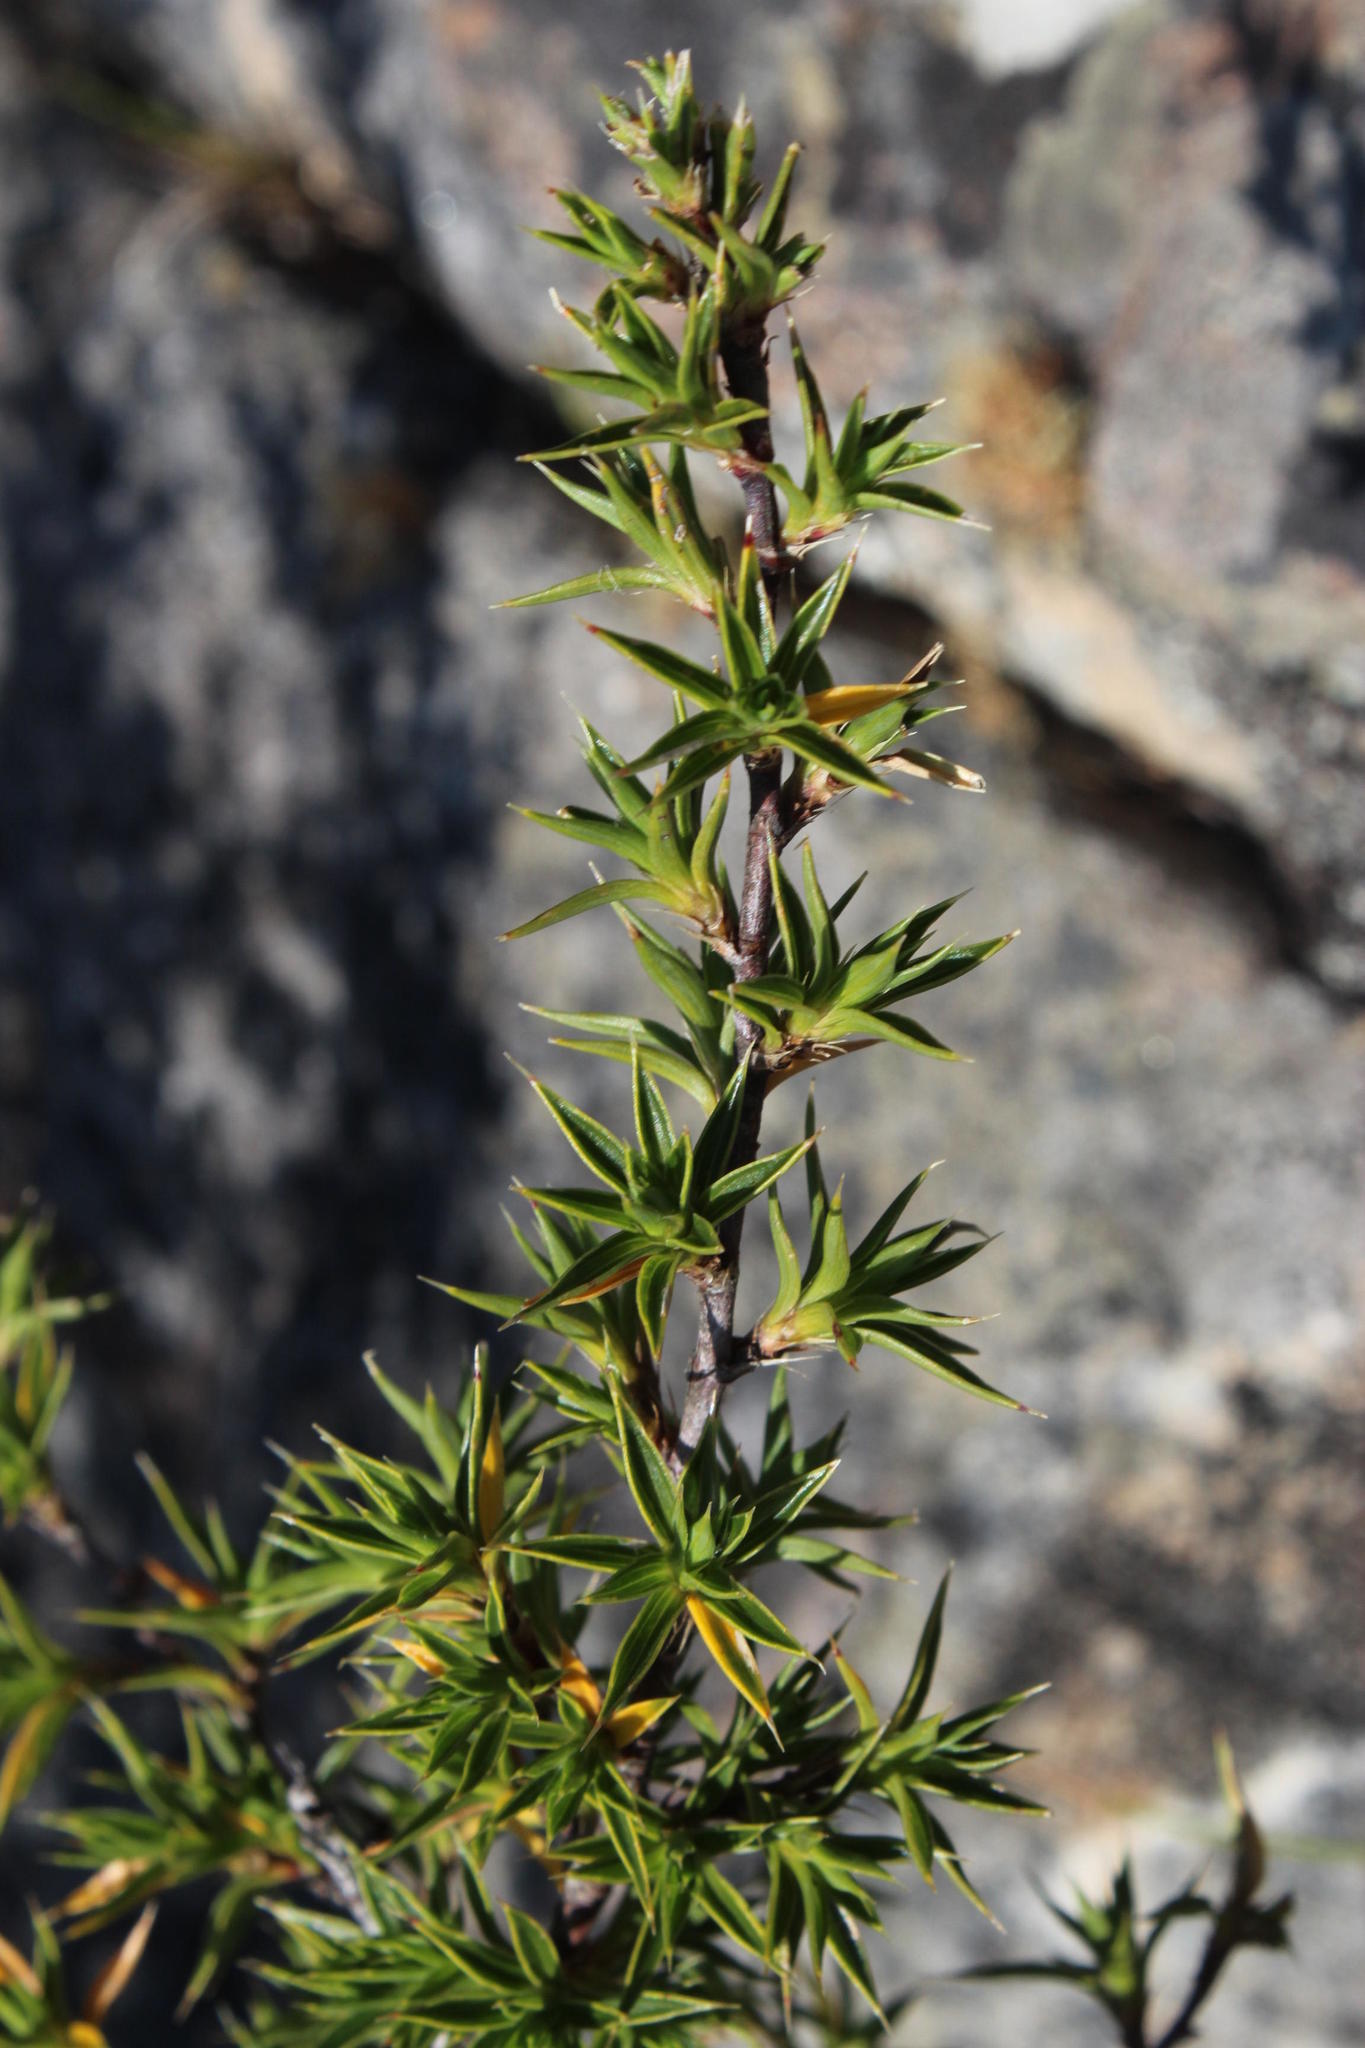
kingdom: Plantae
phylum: Tracheophyta
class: Magnoliopsida
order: Rosales
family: Rosaceae
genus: Cliffortia
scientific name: Cliffortia ruscifolia
